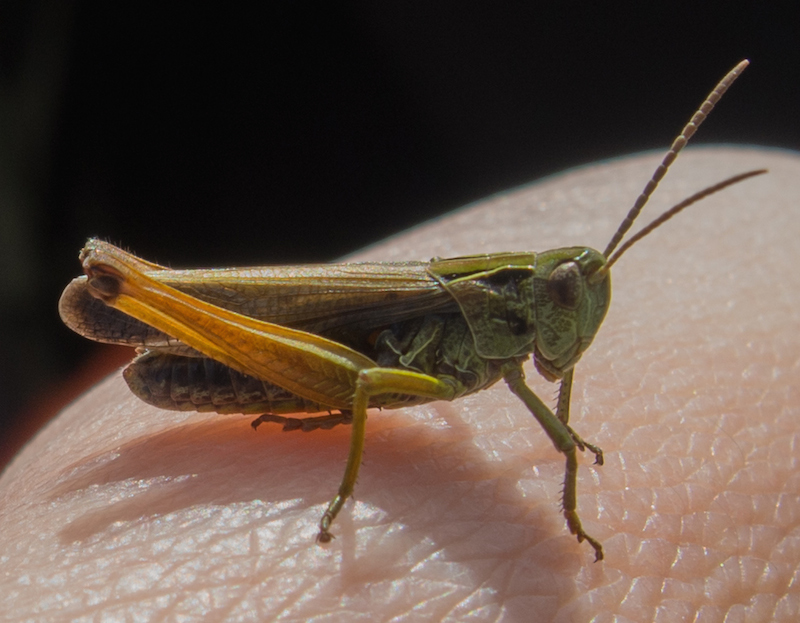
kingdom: Animalia
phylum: Arthropoda
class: Insecta
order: Orthoptera
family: Acrididae
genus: Omocestus
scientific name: Omocestus viridulus
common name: Common green grasshopper
